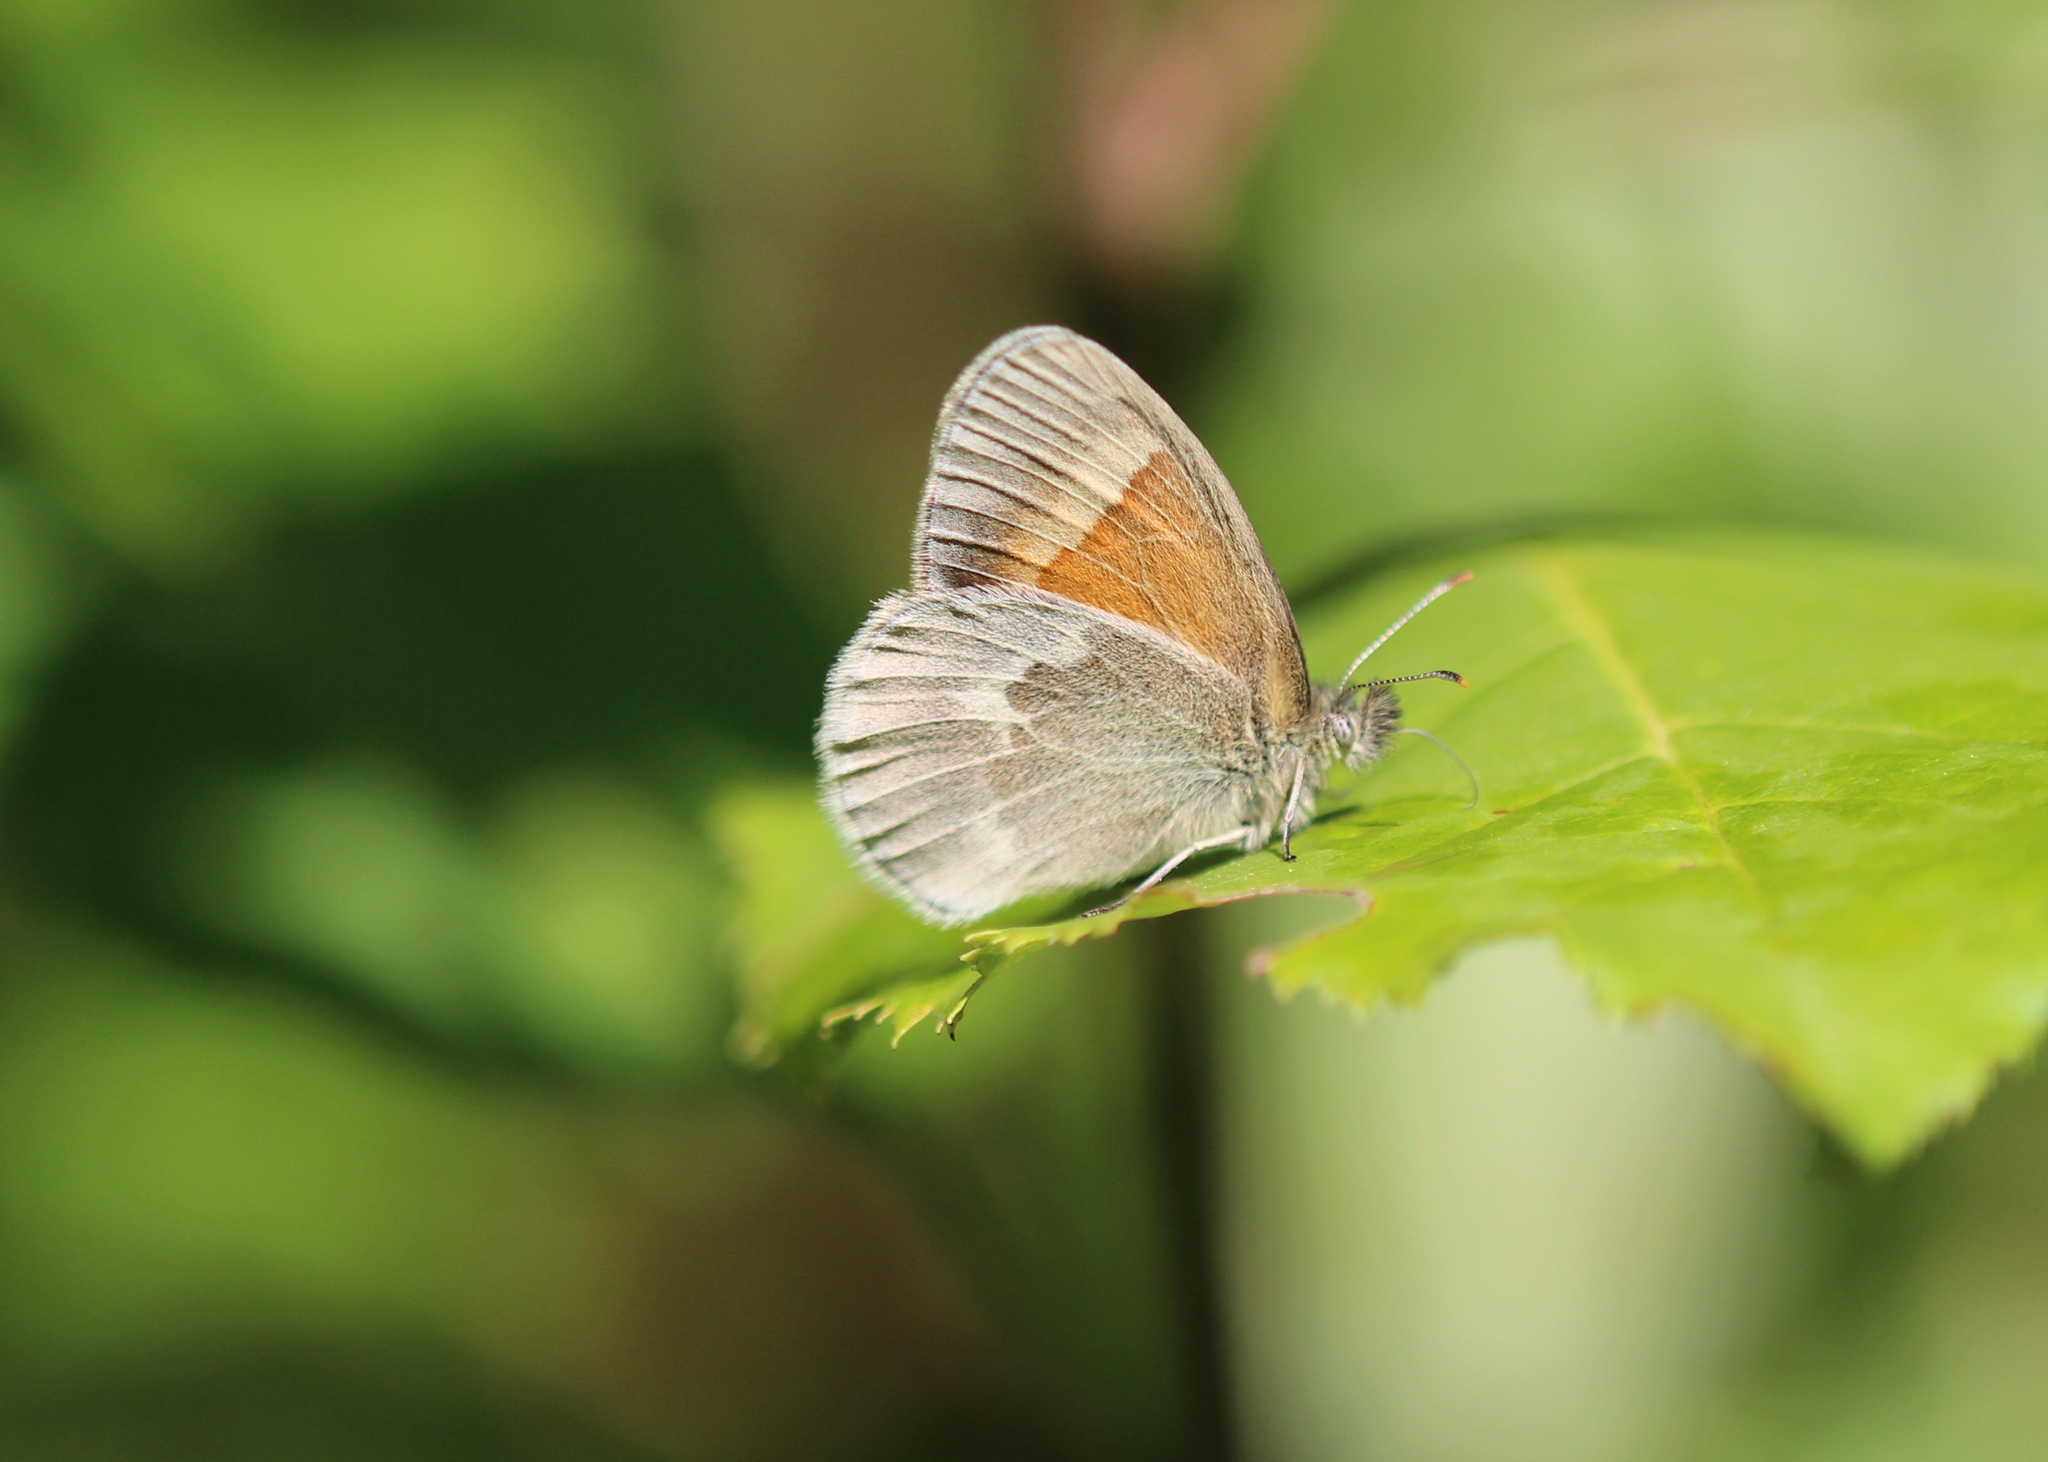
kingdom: Animalia
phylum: Arthropoda
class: Insecta
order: Lepidoptera
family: Nymphalidae
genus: Coenonympha
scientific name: Coenonympha california
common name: Common ringlet
